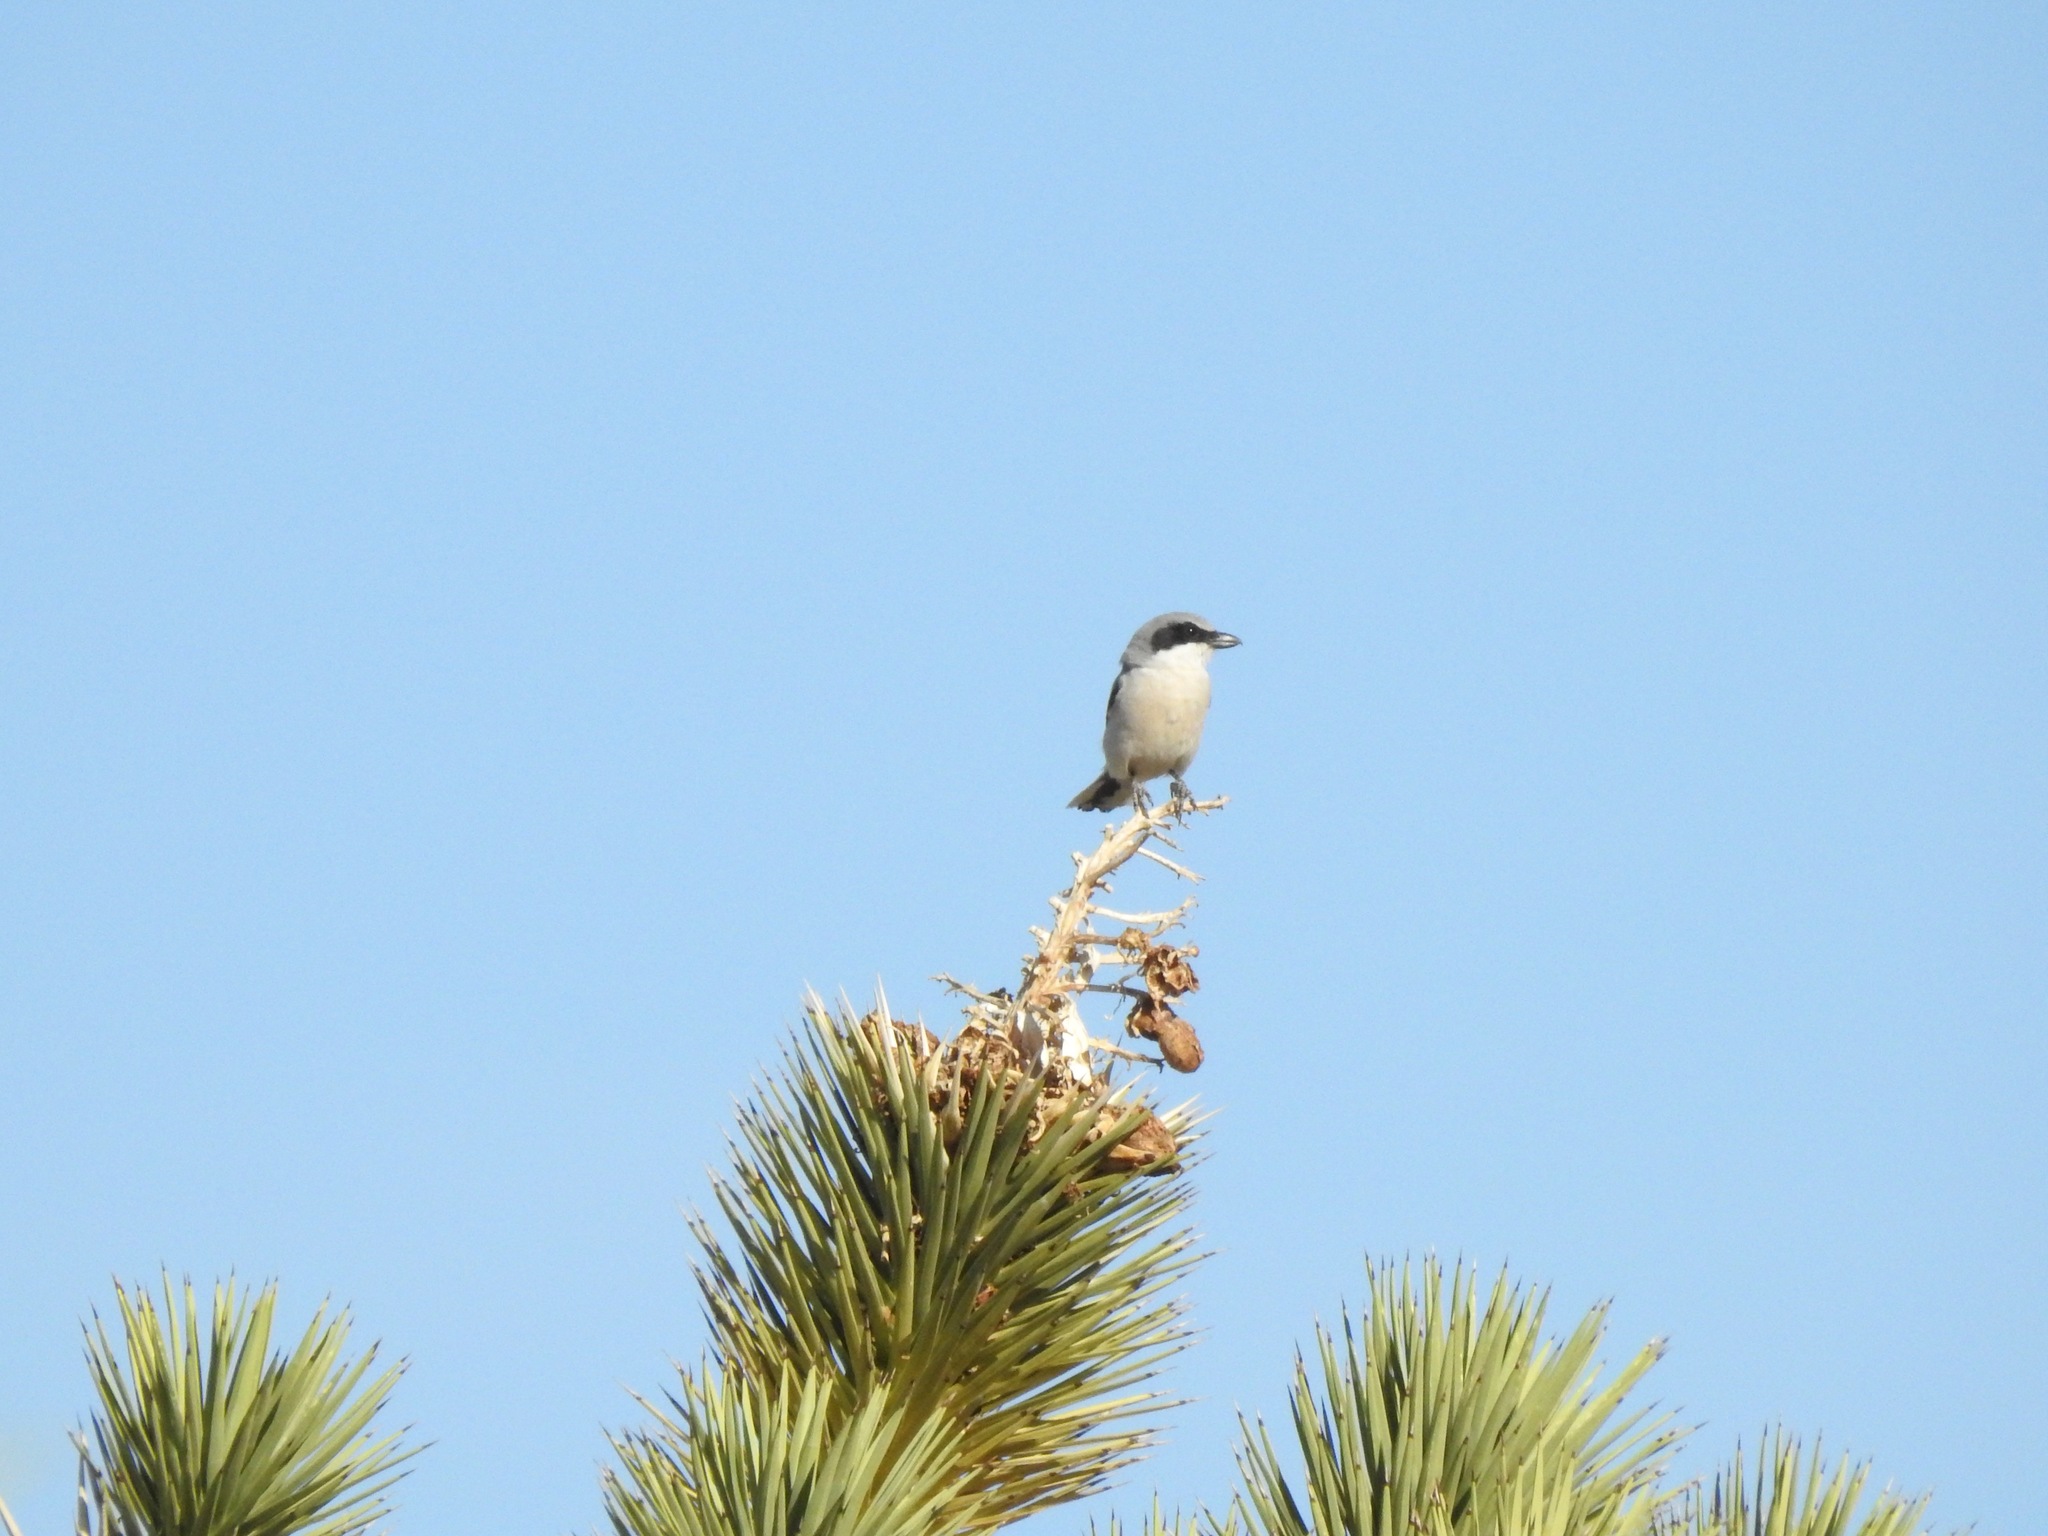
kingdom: Animalia
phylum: Chordata
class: Aves
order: Passeriformes
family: Laniidae
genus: Lanius
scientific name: Lanius ludovicianus
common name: Loggerhead shrike
